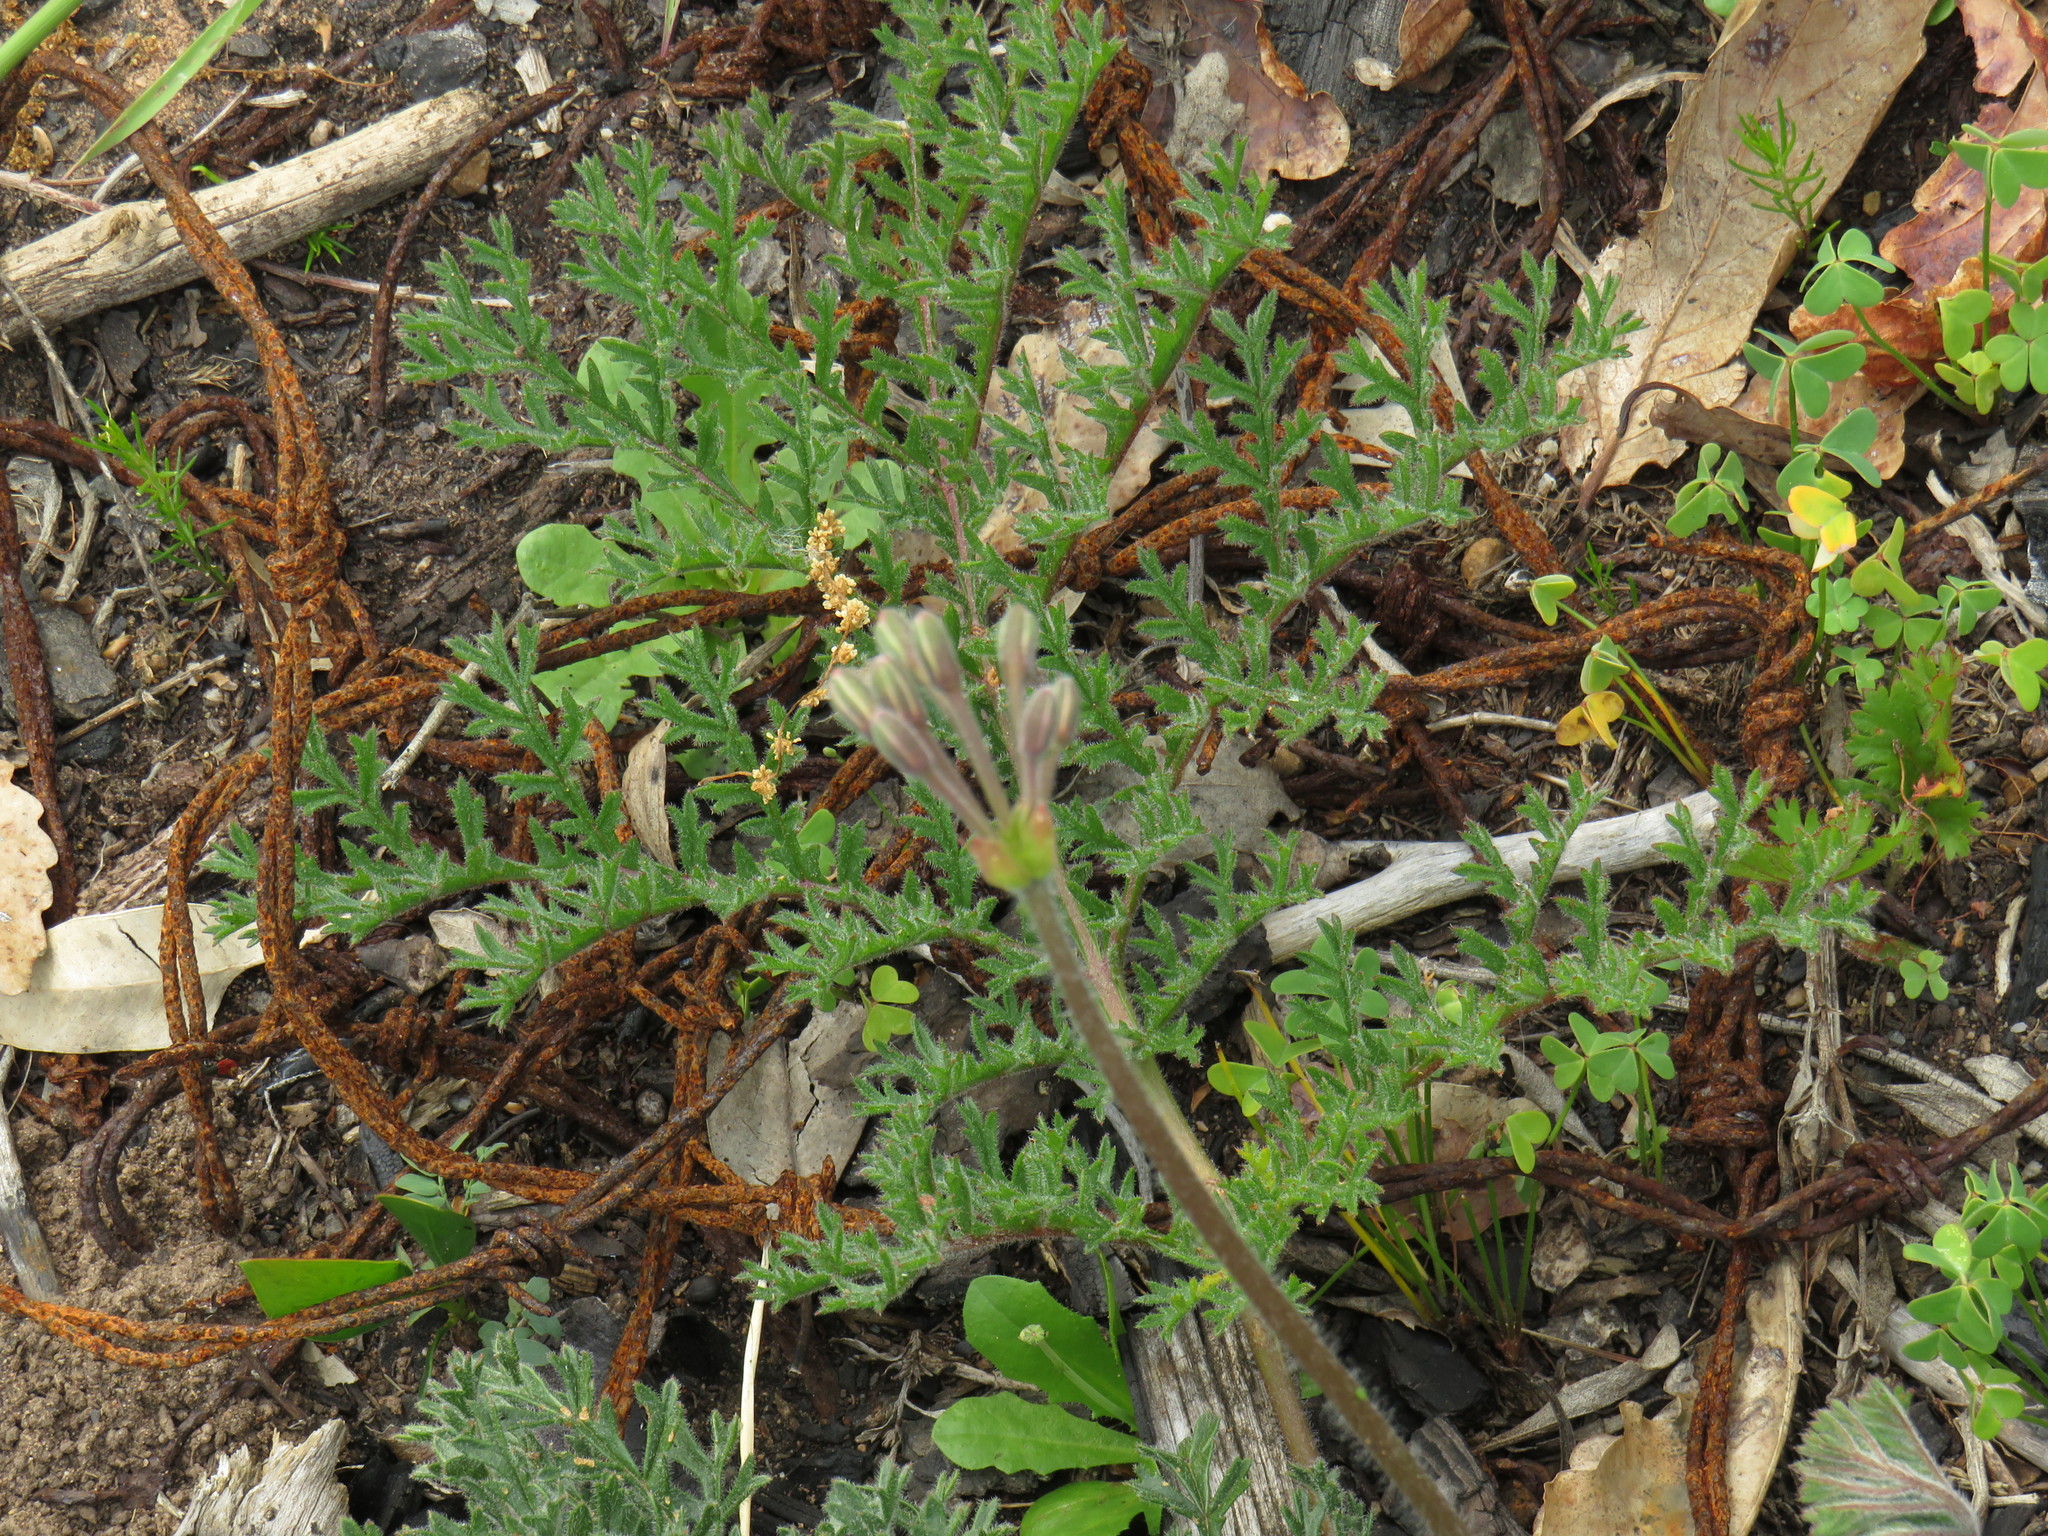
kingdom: Plantae
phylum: Tracheophyta
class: Magnoliopsida
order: Geraniales
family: Geraniaceae
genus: Pelargonium
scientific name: Pelargonium triste
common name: Night-scent pelargonium
